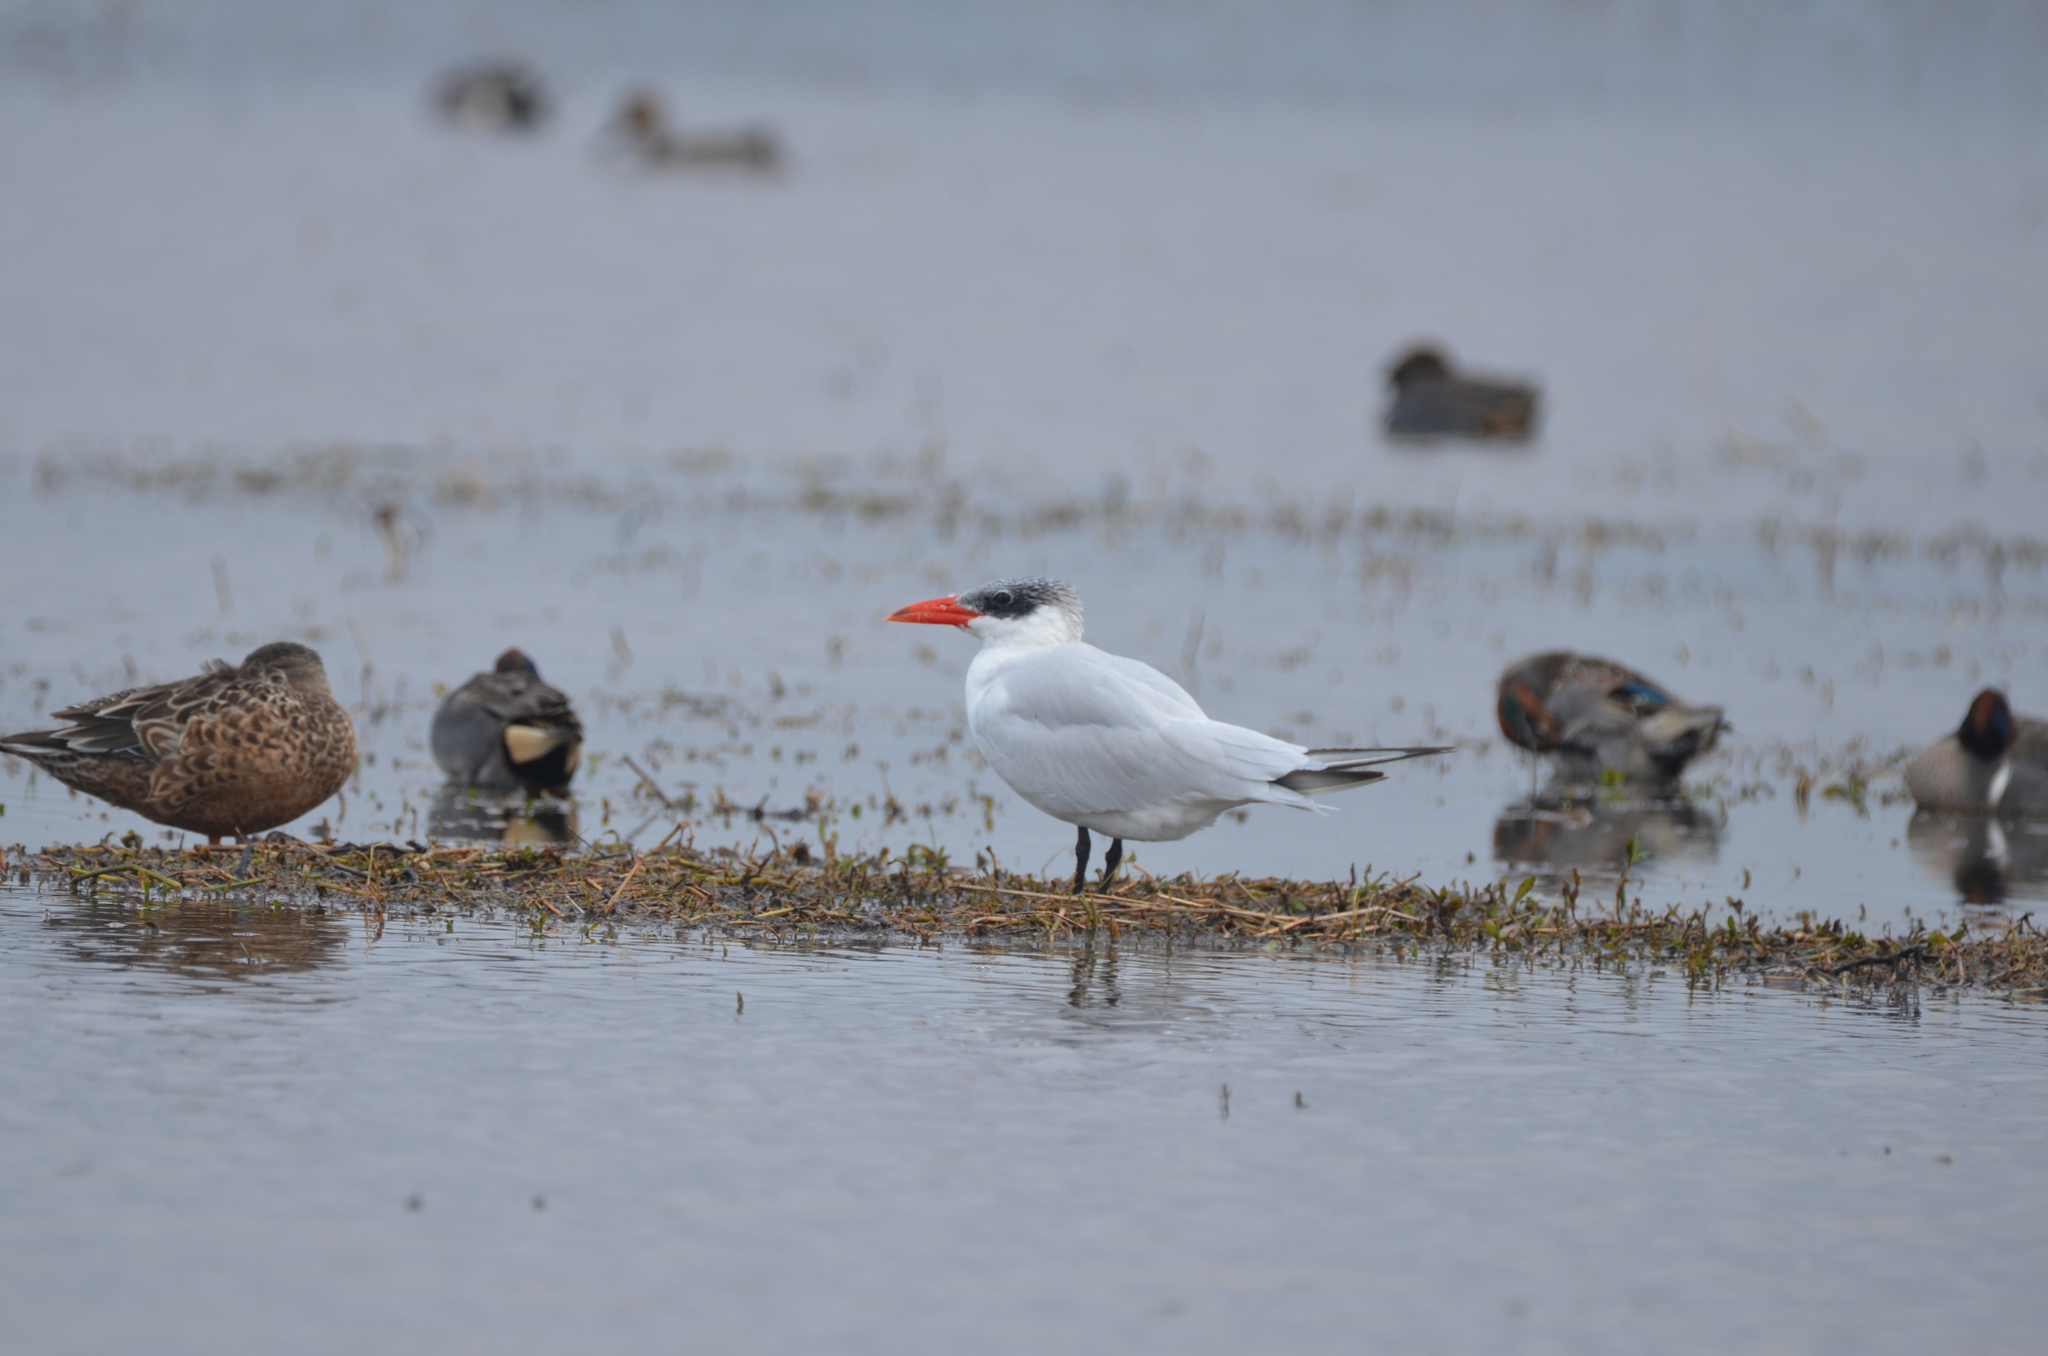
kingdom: Animalia
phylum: Chordata
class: Aves
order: Charadriiformes
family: Laridae
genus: Hydroprogne
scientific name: Hydroprogne caspia
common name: Caspian tern
